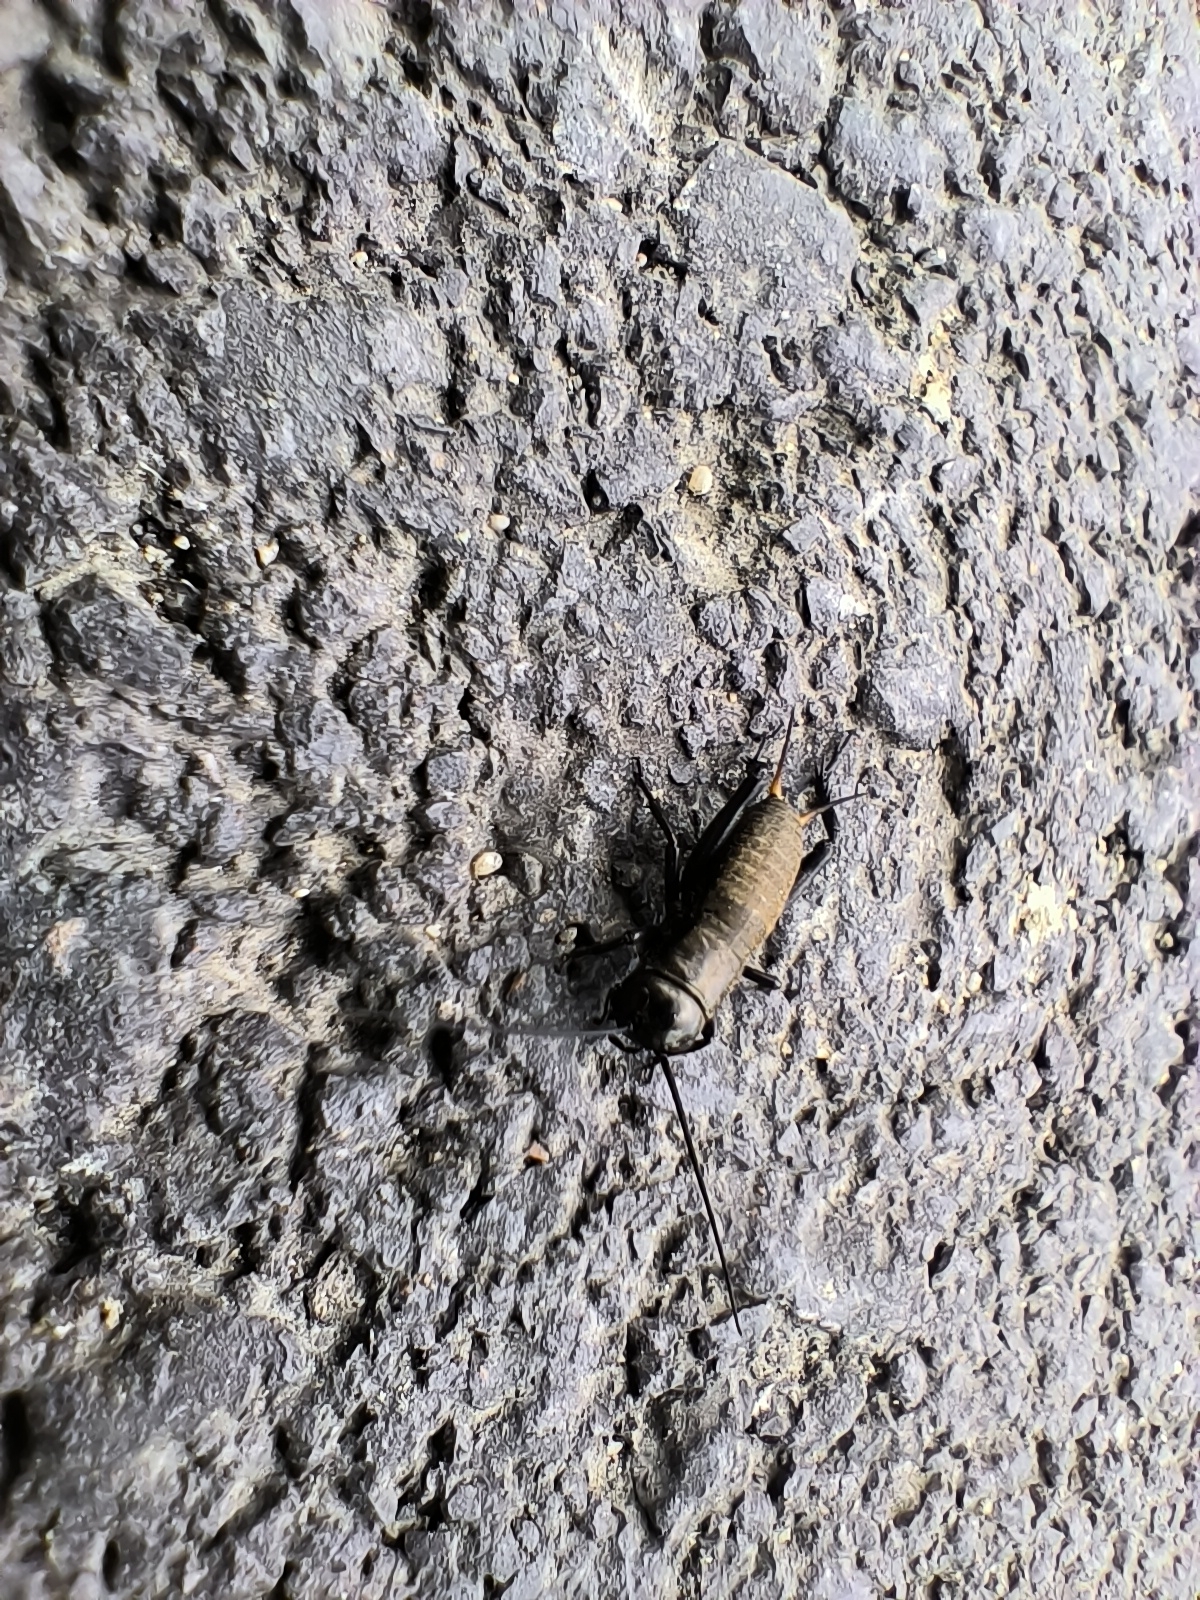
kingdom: Animalia
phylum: Arthropoda
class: Insecta
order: Orthoptera
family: Gryllidae
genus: Gryllus
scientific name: Gryllus campestris
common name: Field cricket
